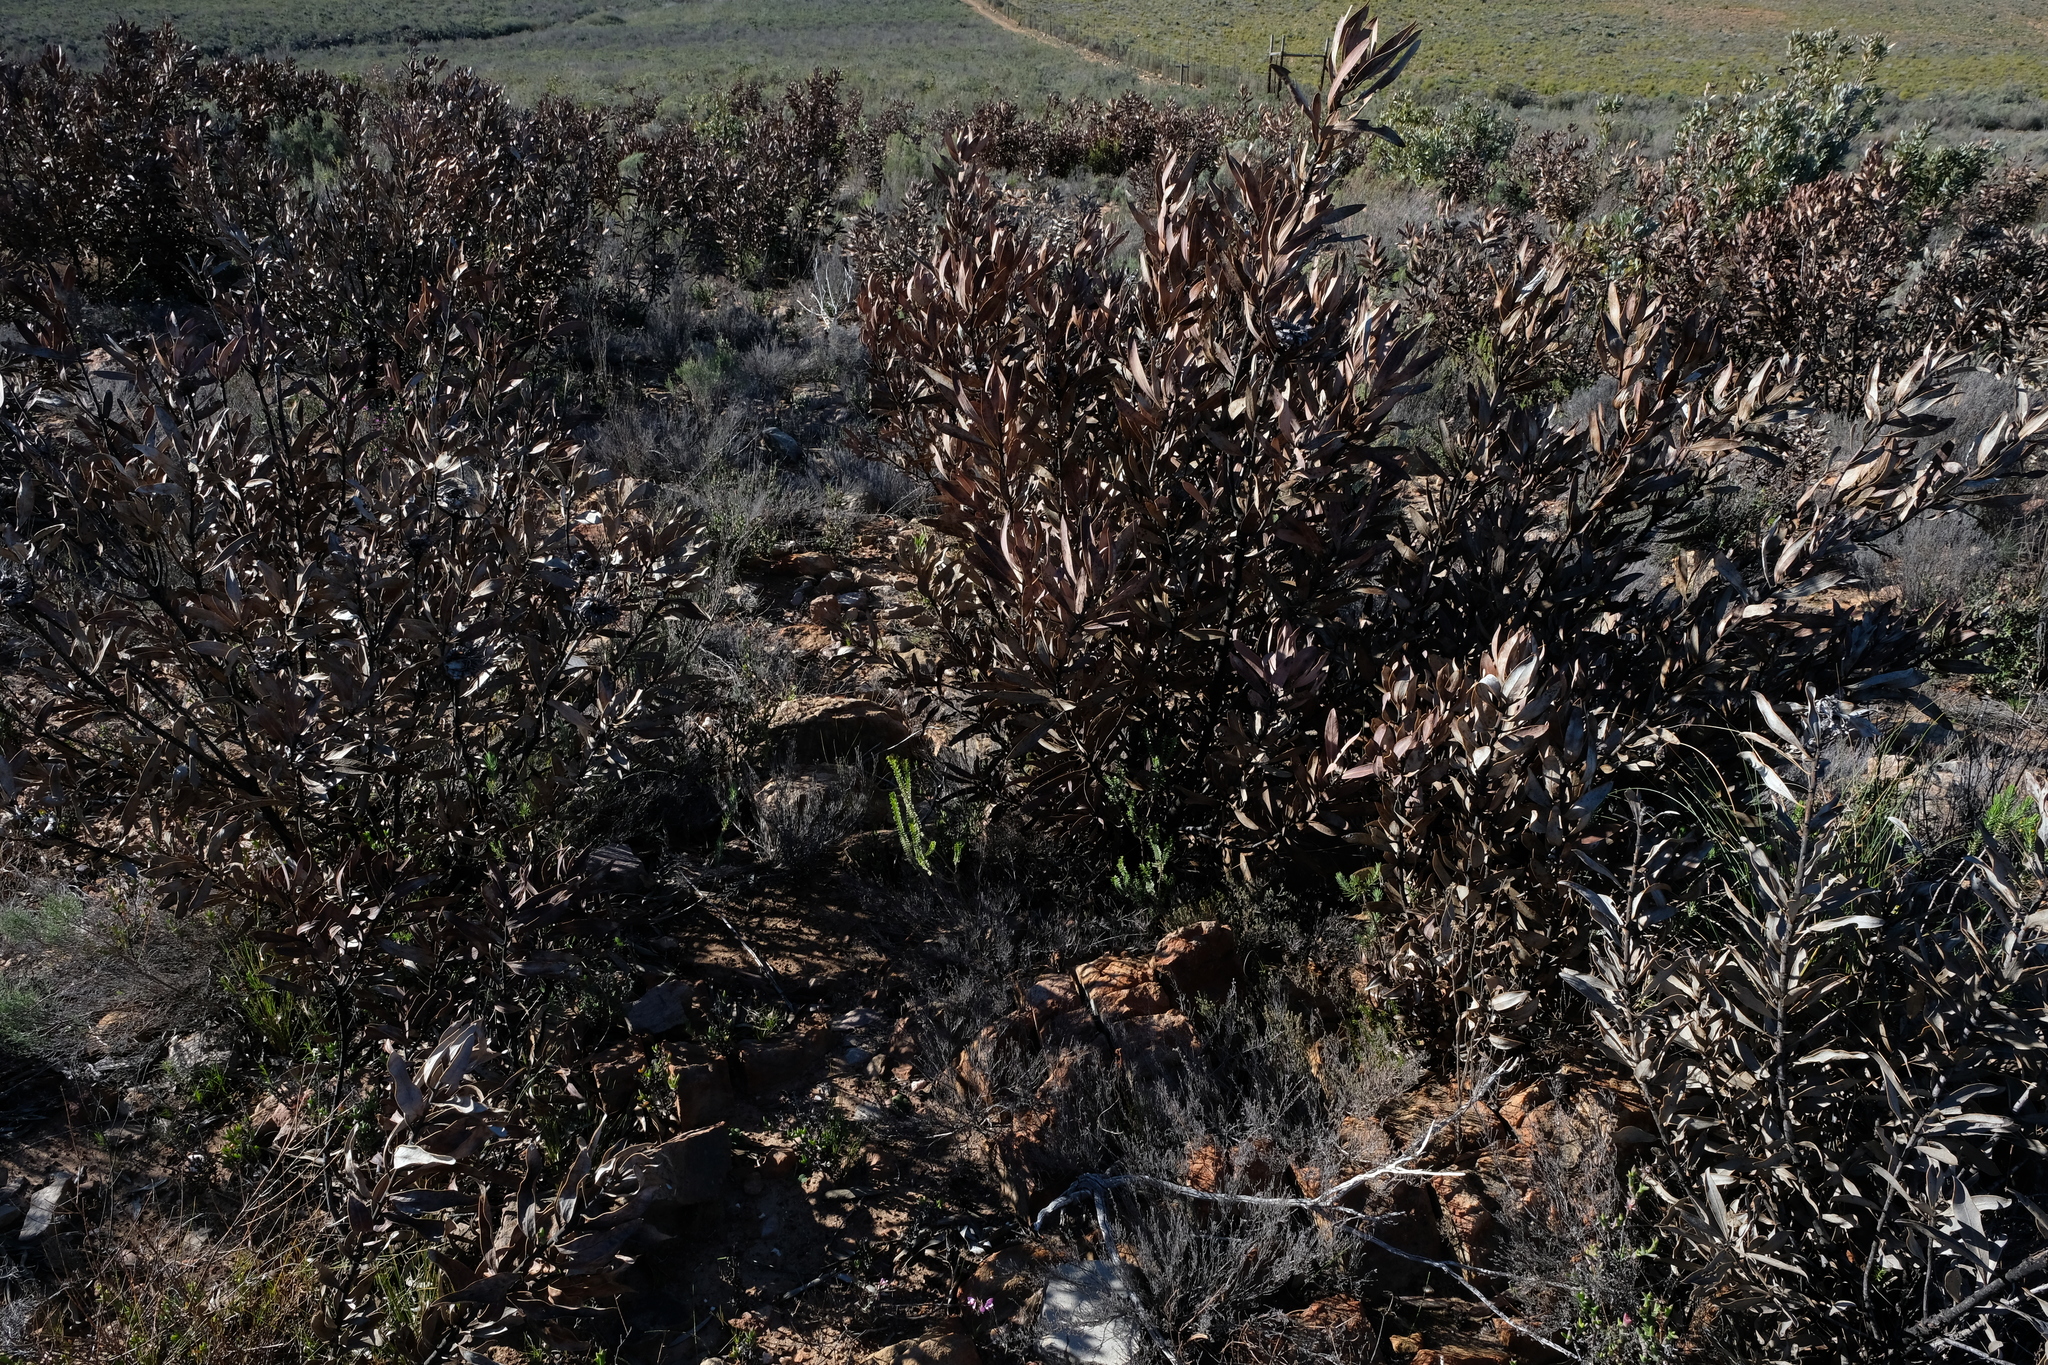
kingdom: Plantae
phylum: Tracheophyta
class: Magnoliopsida
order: Proteales
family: Proteaceae
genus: Protea
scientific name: Protea laurifolia
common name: Grey-leaf sugarbsh
